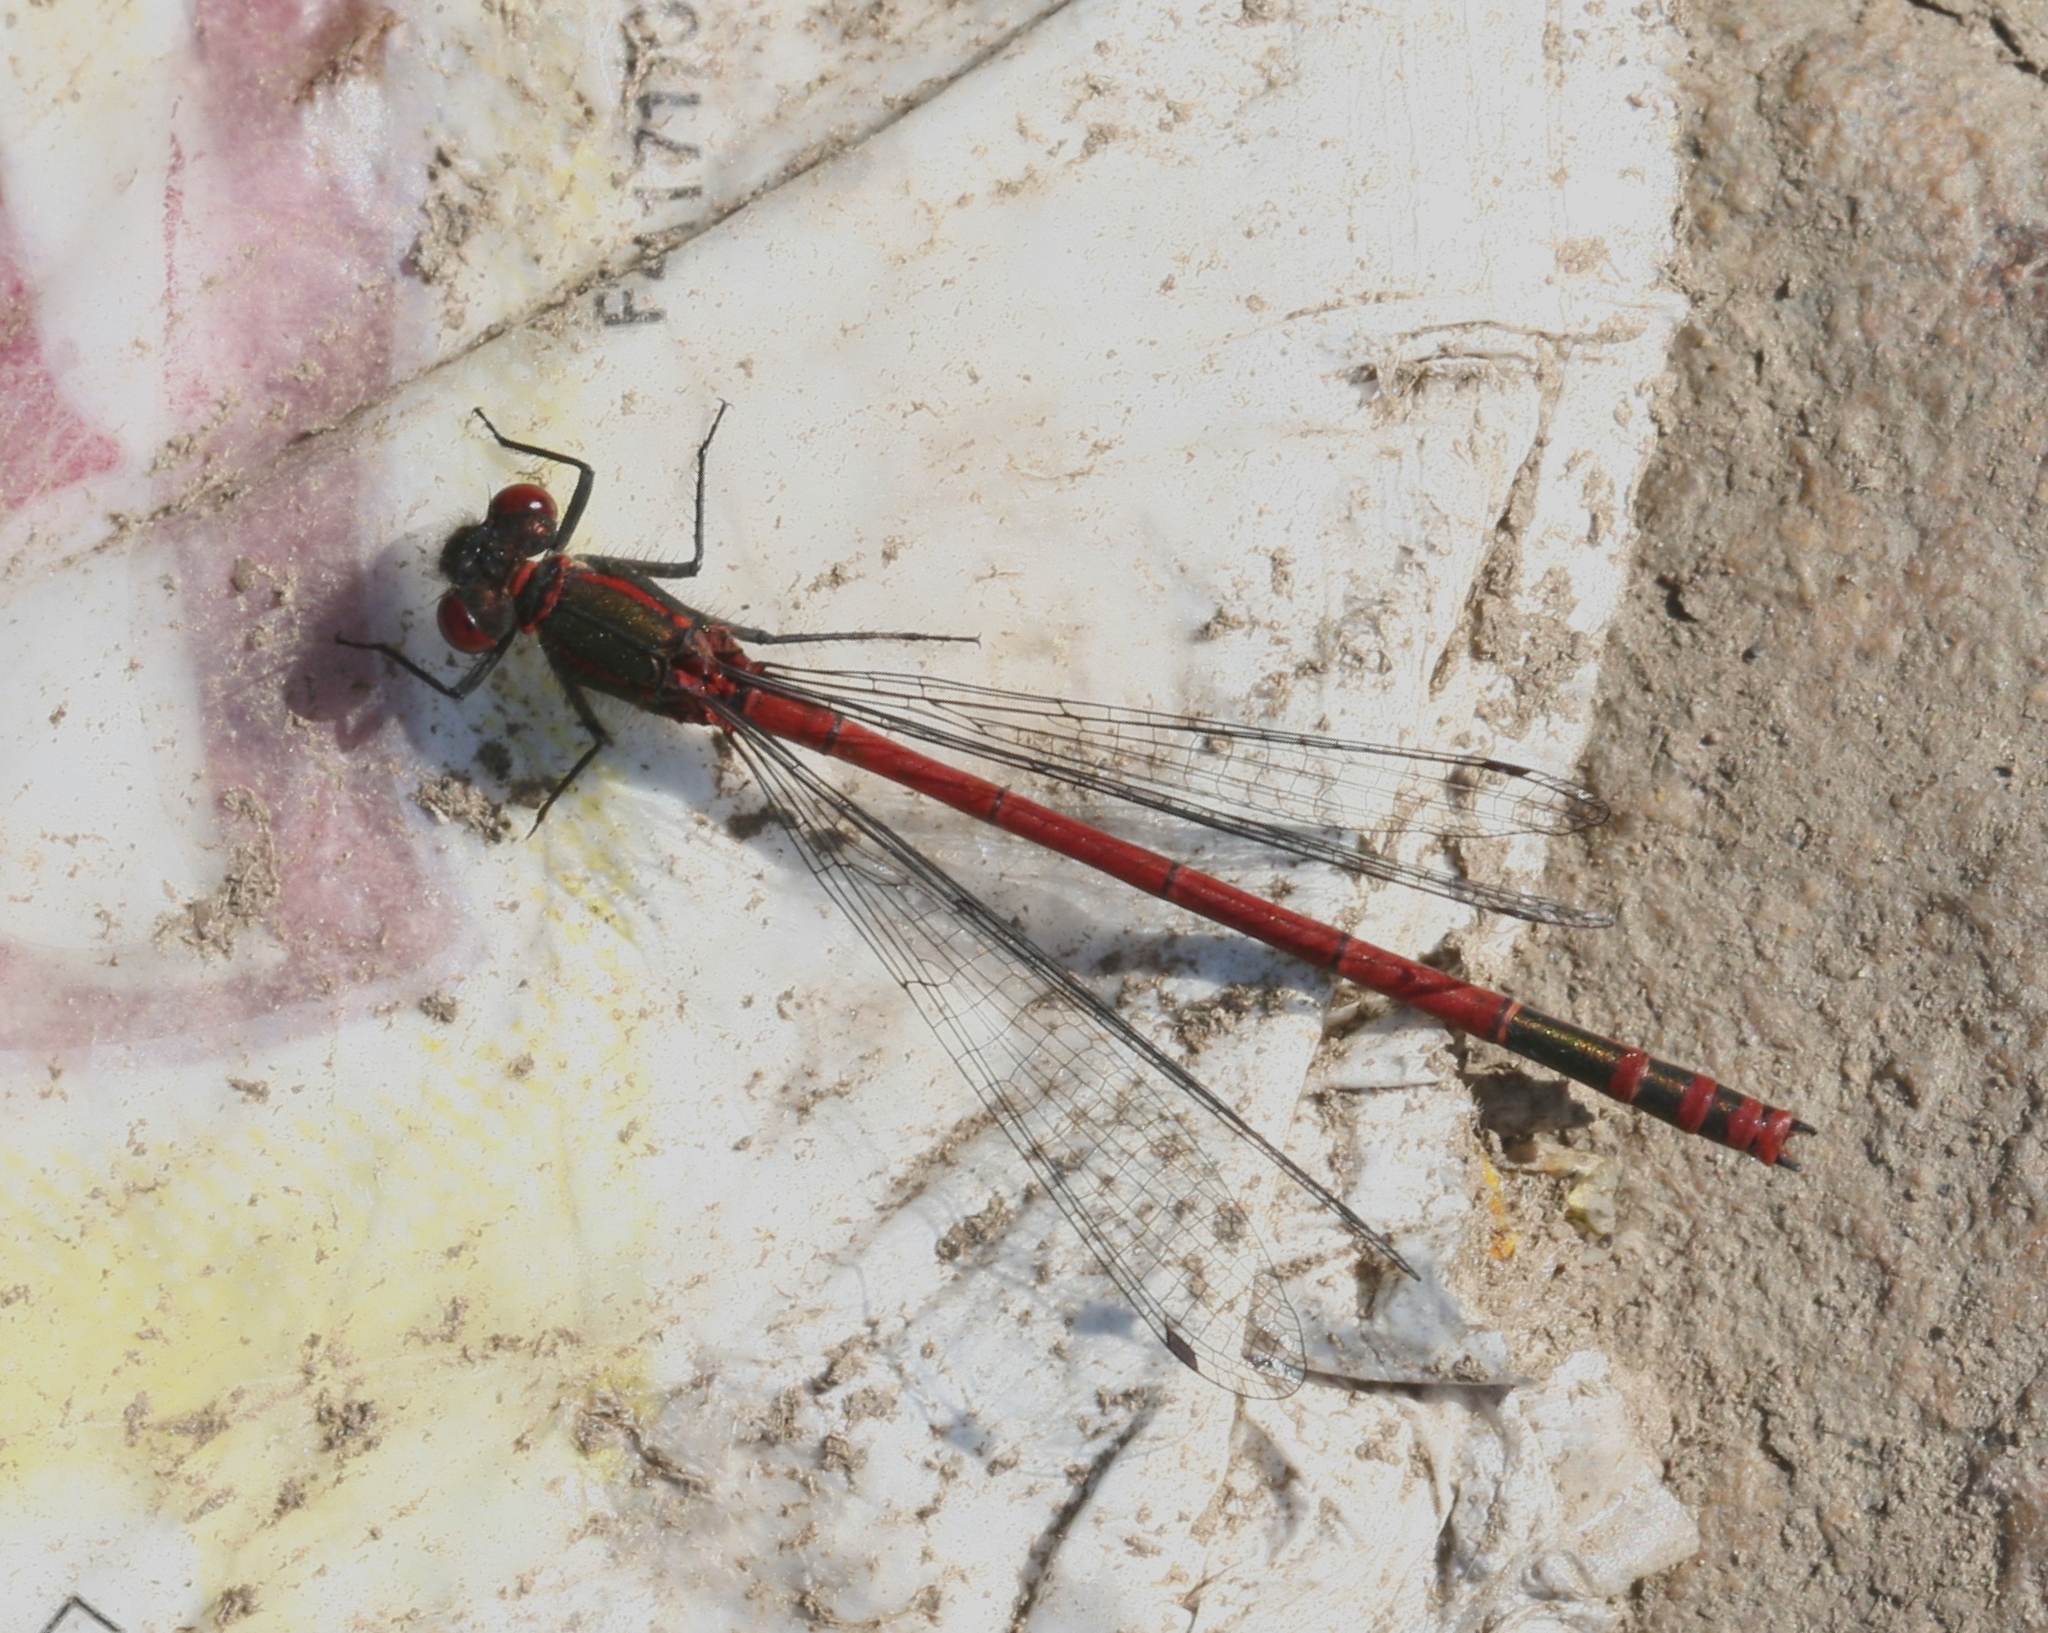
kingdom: Animalia
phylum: Arthropoda
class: Insecta
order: Odonata
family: Coenagrionidae
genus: Pyrrhosoma
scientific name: Pyrrhosoma nymphula
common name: Large red damsel
